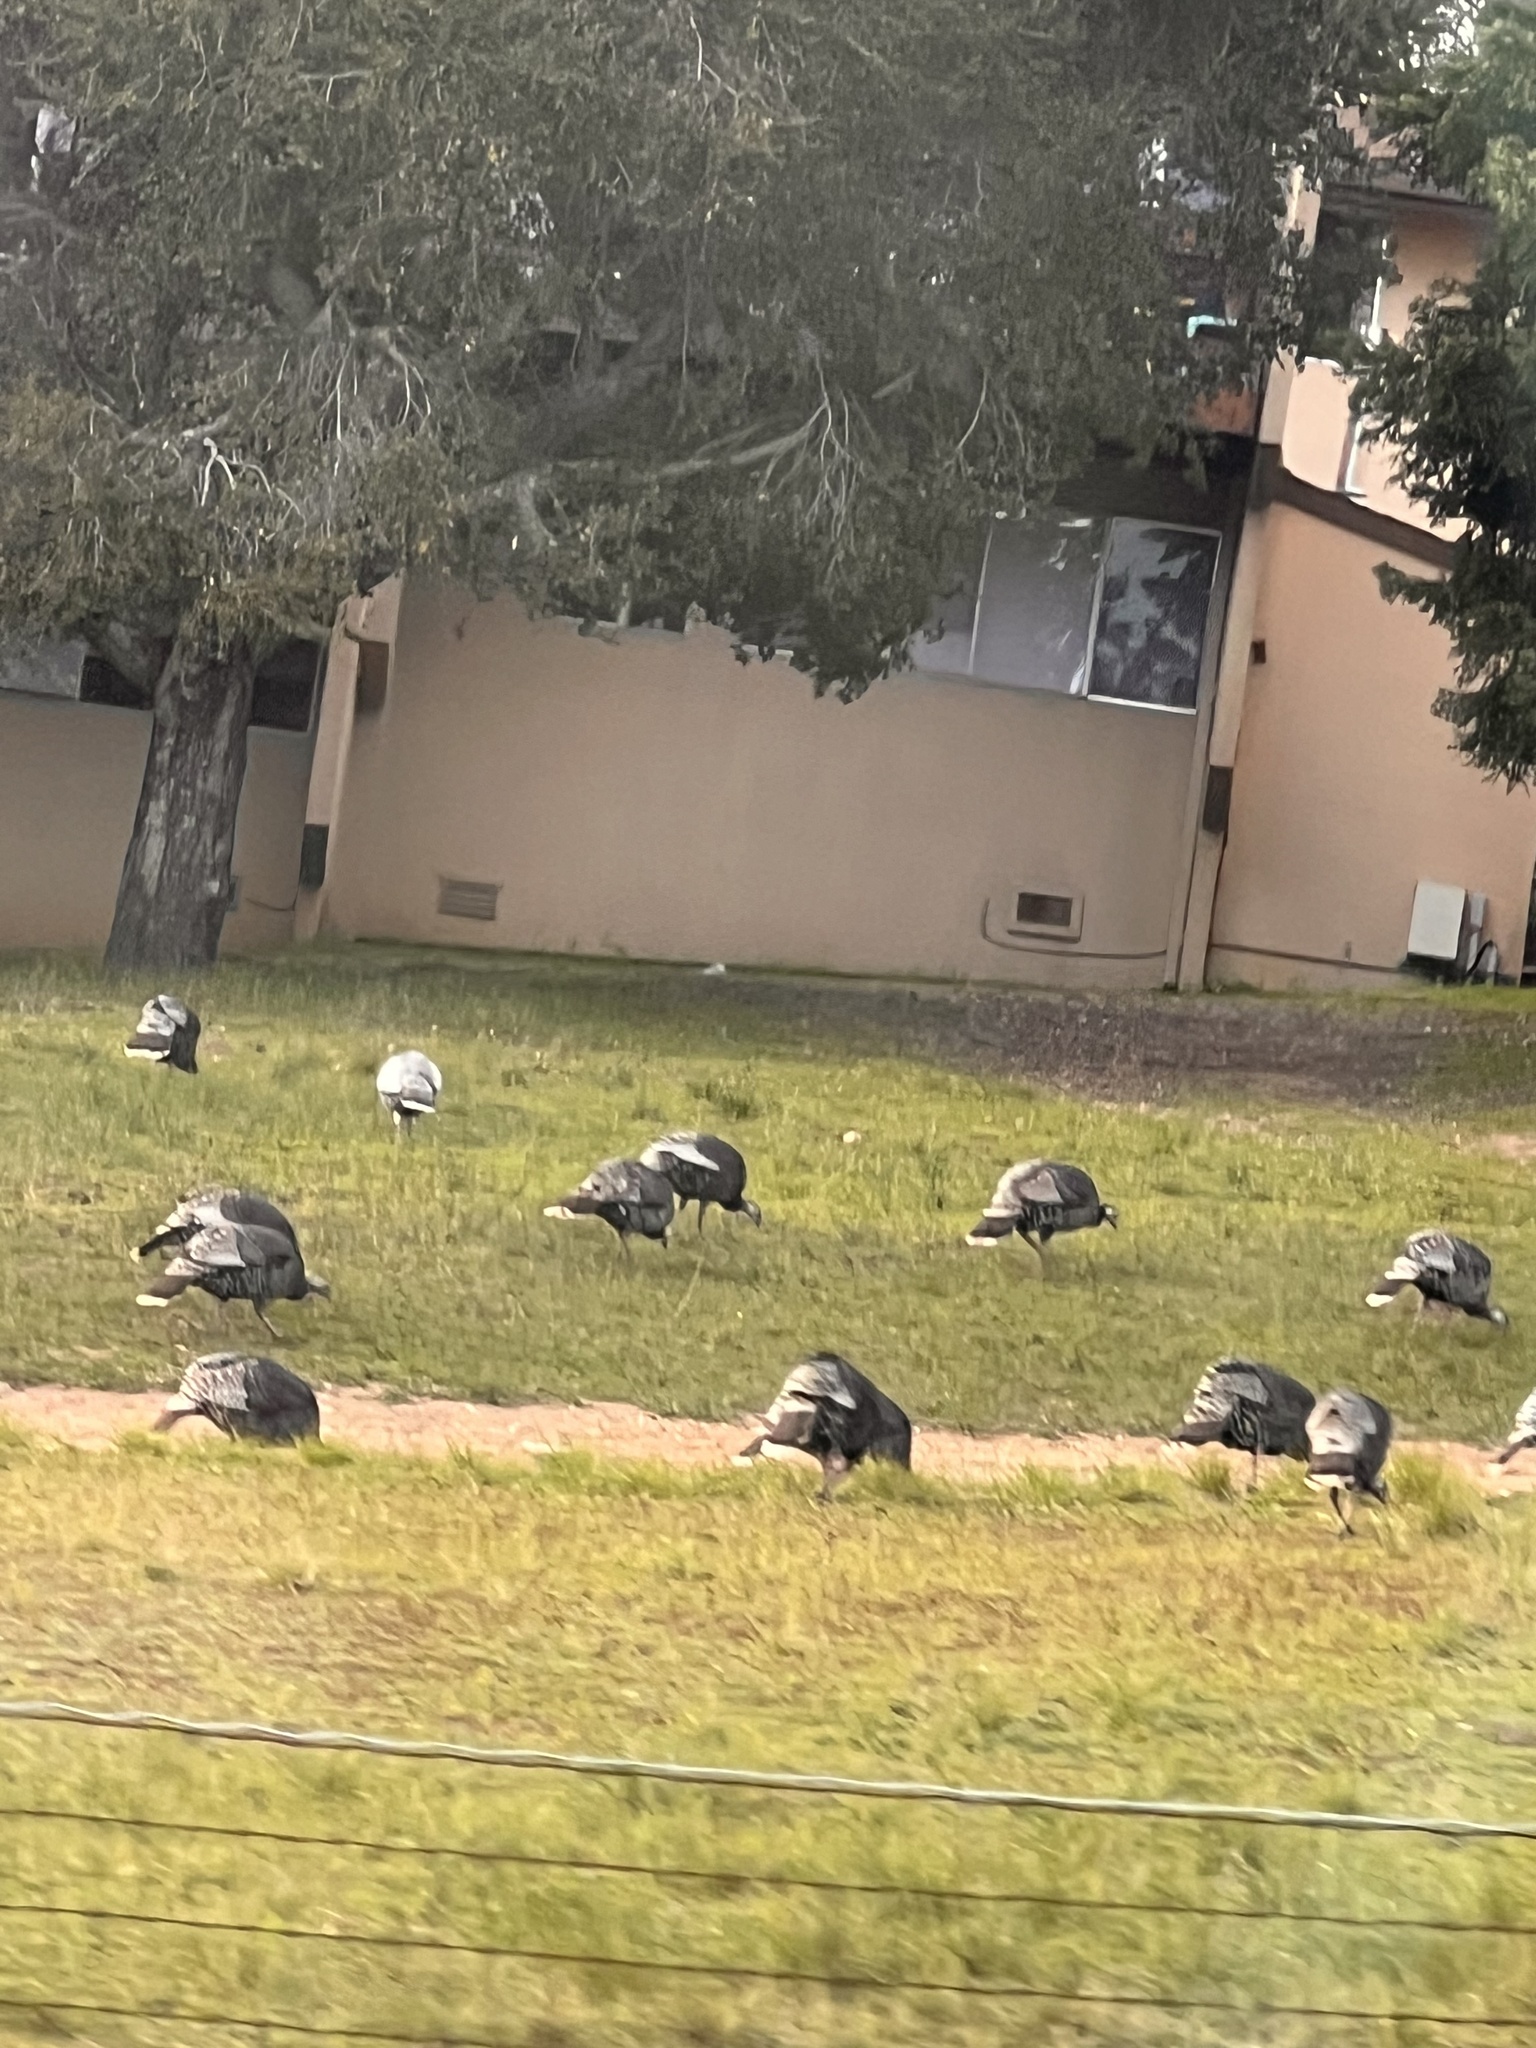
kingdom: Animalia
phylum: Chordata
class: Aves
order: Galliformes
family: Phasianidae
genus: Meleagris
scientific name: Meleagris gallopavo
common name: Wild turkey
